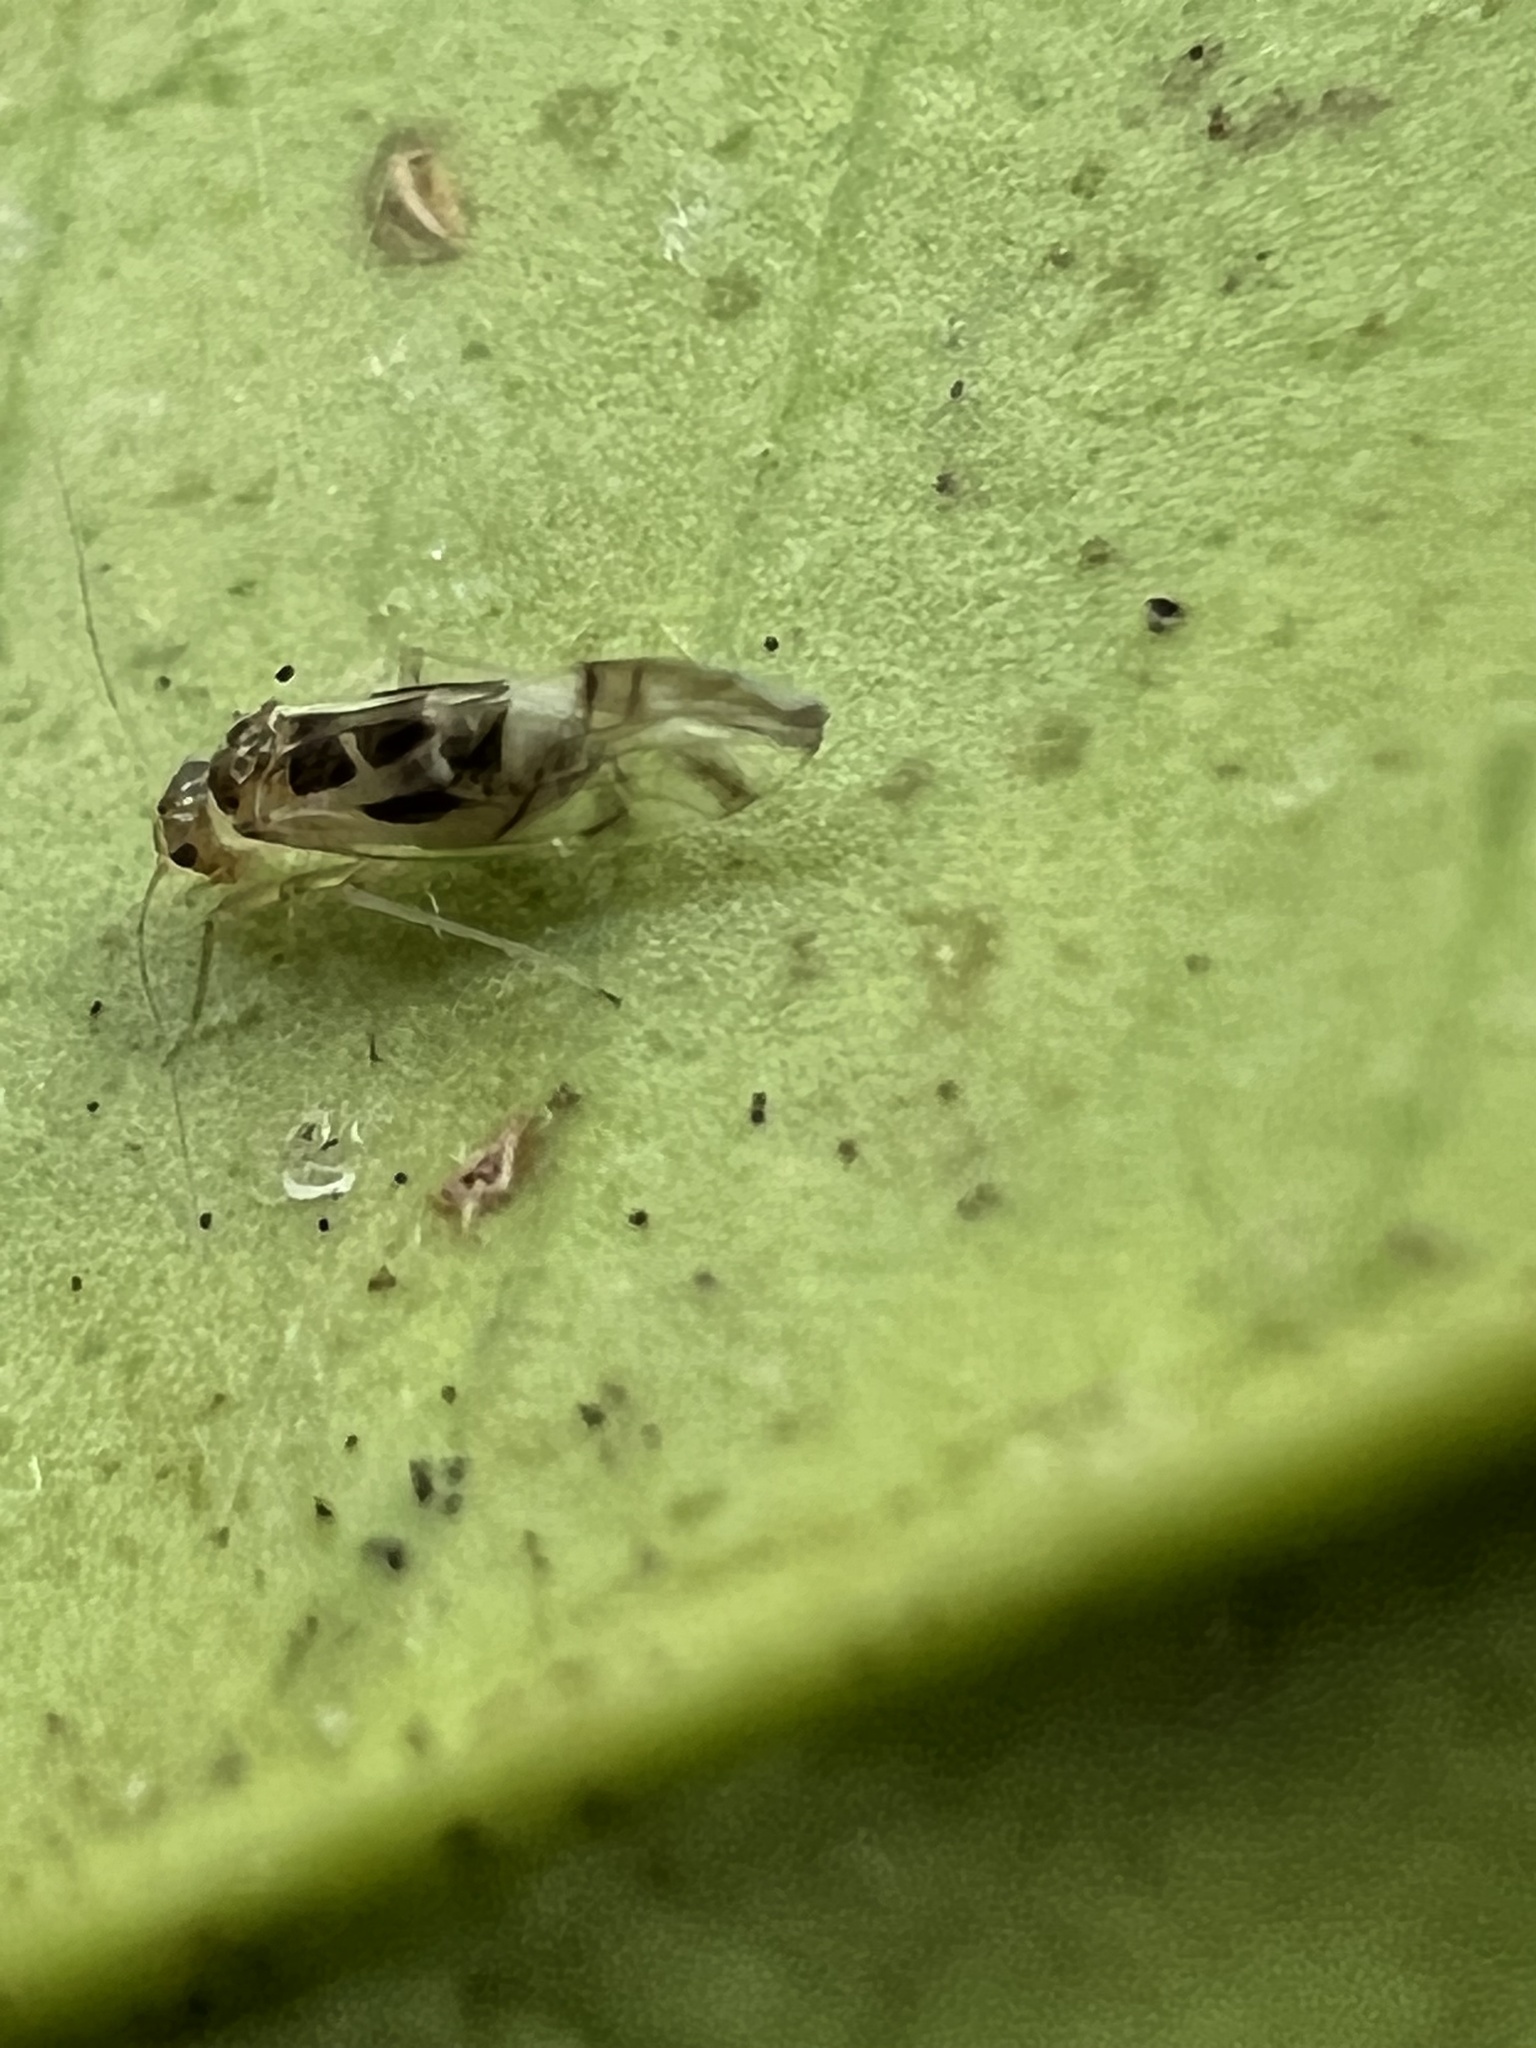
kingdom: Animalia
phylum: Arthropoda
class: Insecta
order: Psocodea
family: Stenopsocidae
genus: Graphopsocus
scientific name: Graphopsocus cruciatus
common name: Lizard bark louse
